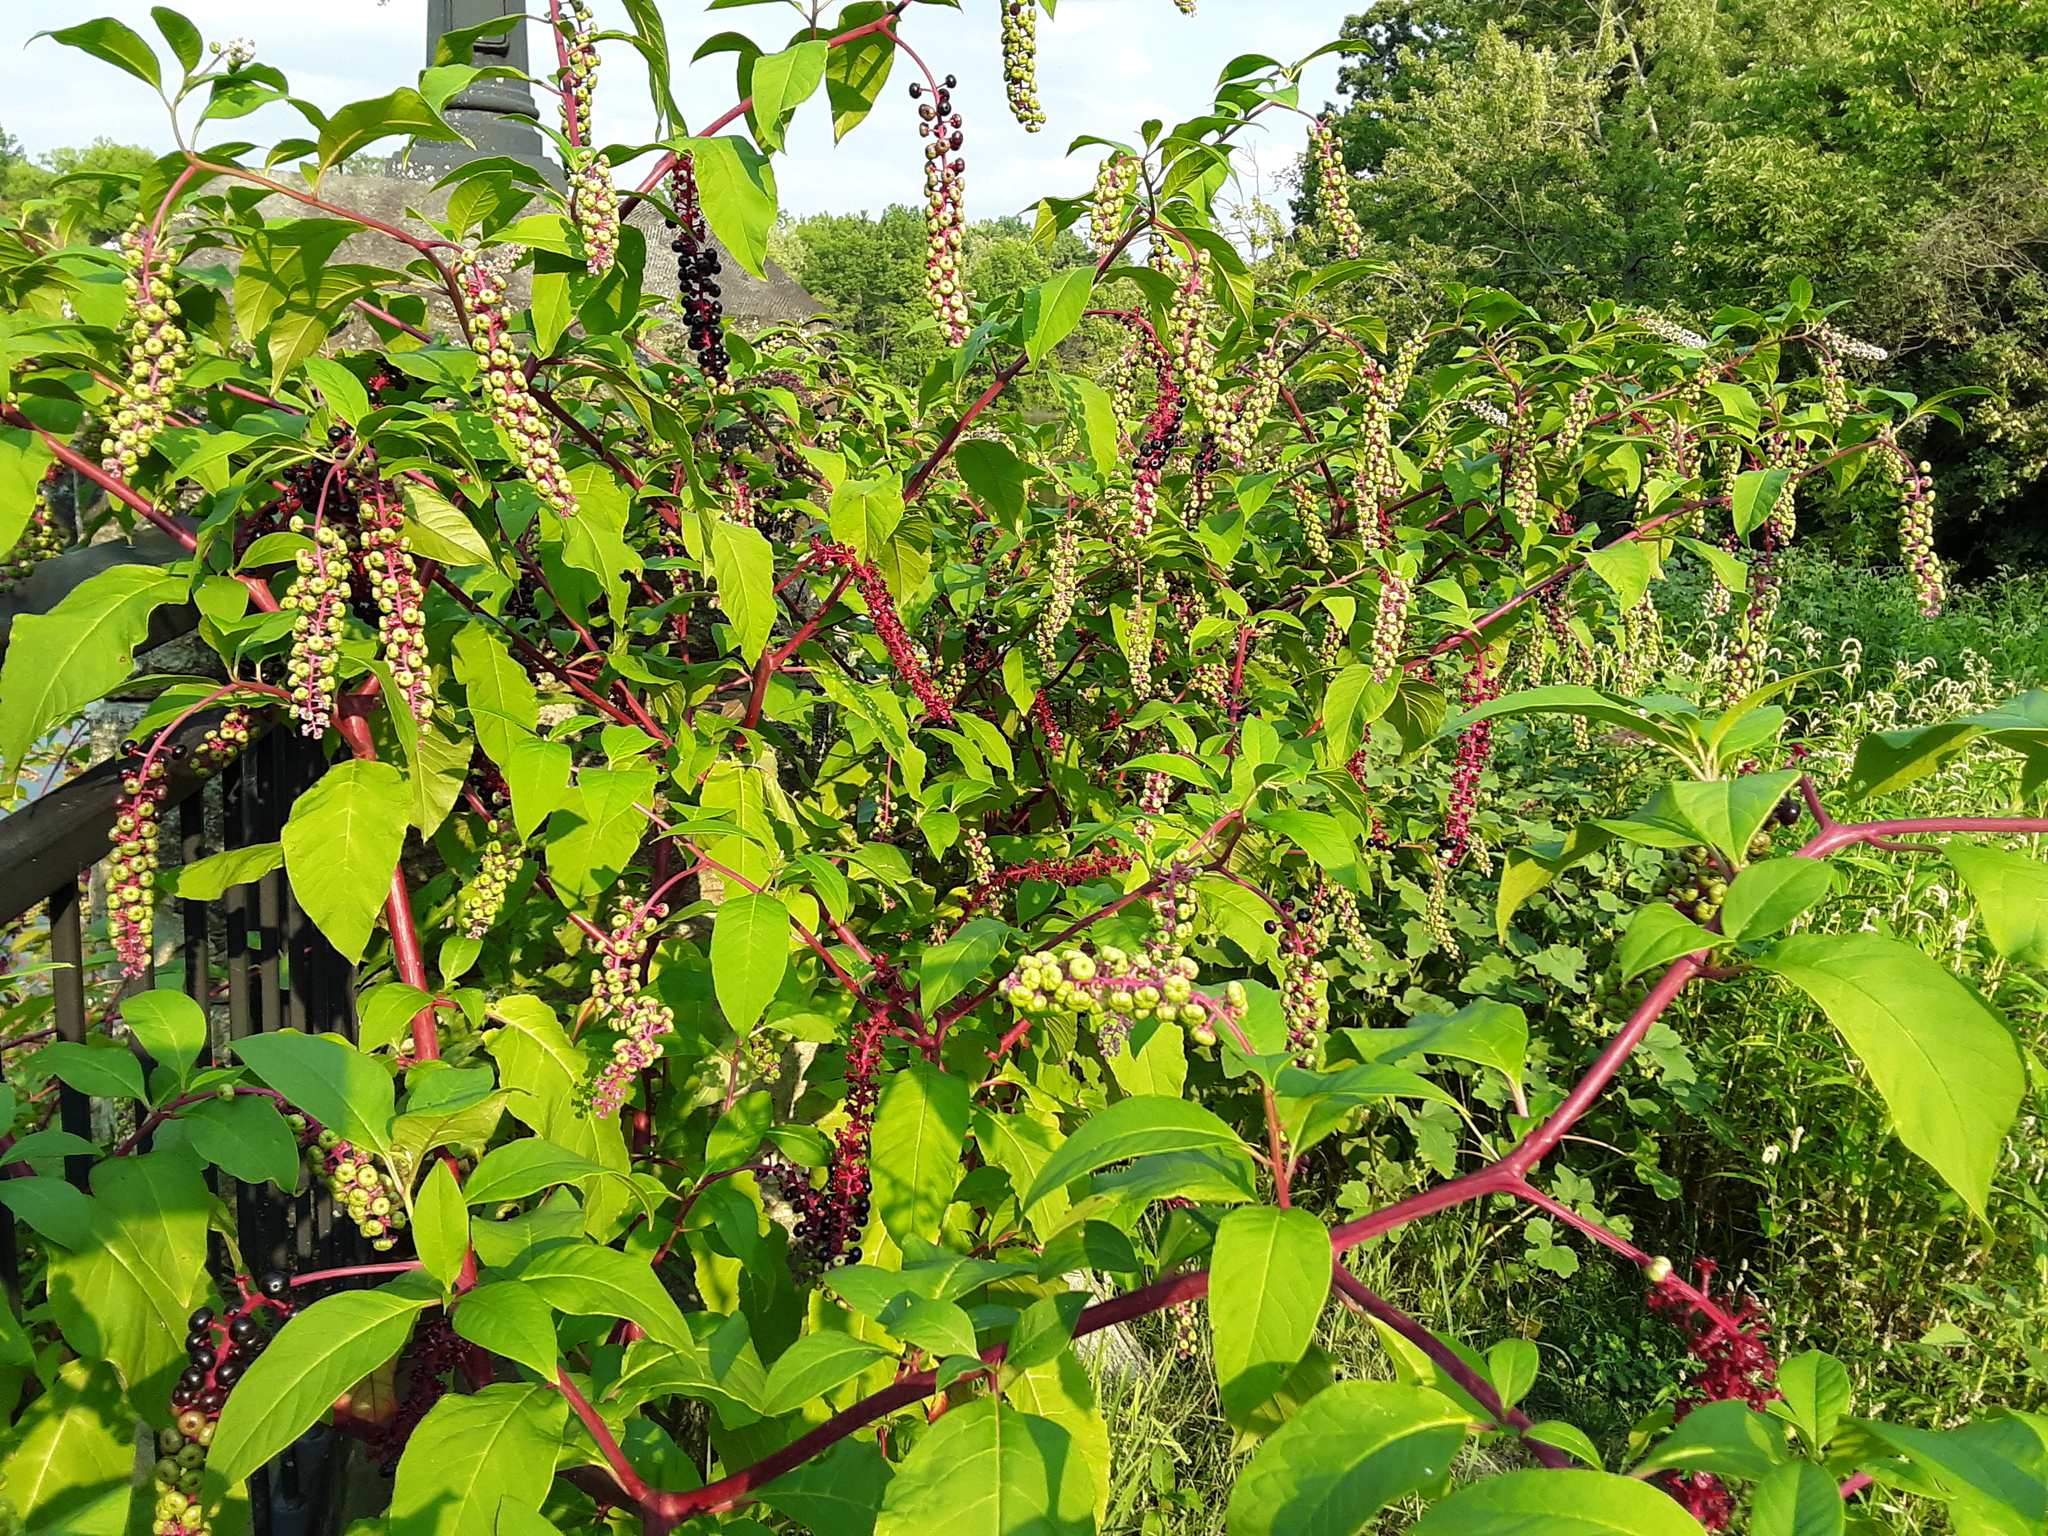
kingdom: Plantae
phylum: Tracheophyta
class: Magnoliopsida
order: Caryophyllales
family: Phytolaccaceae
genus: Phytolacca
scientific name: Phytolacca americana
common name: American pokeweed
